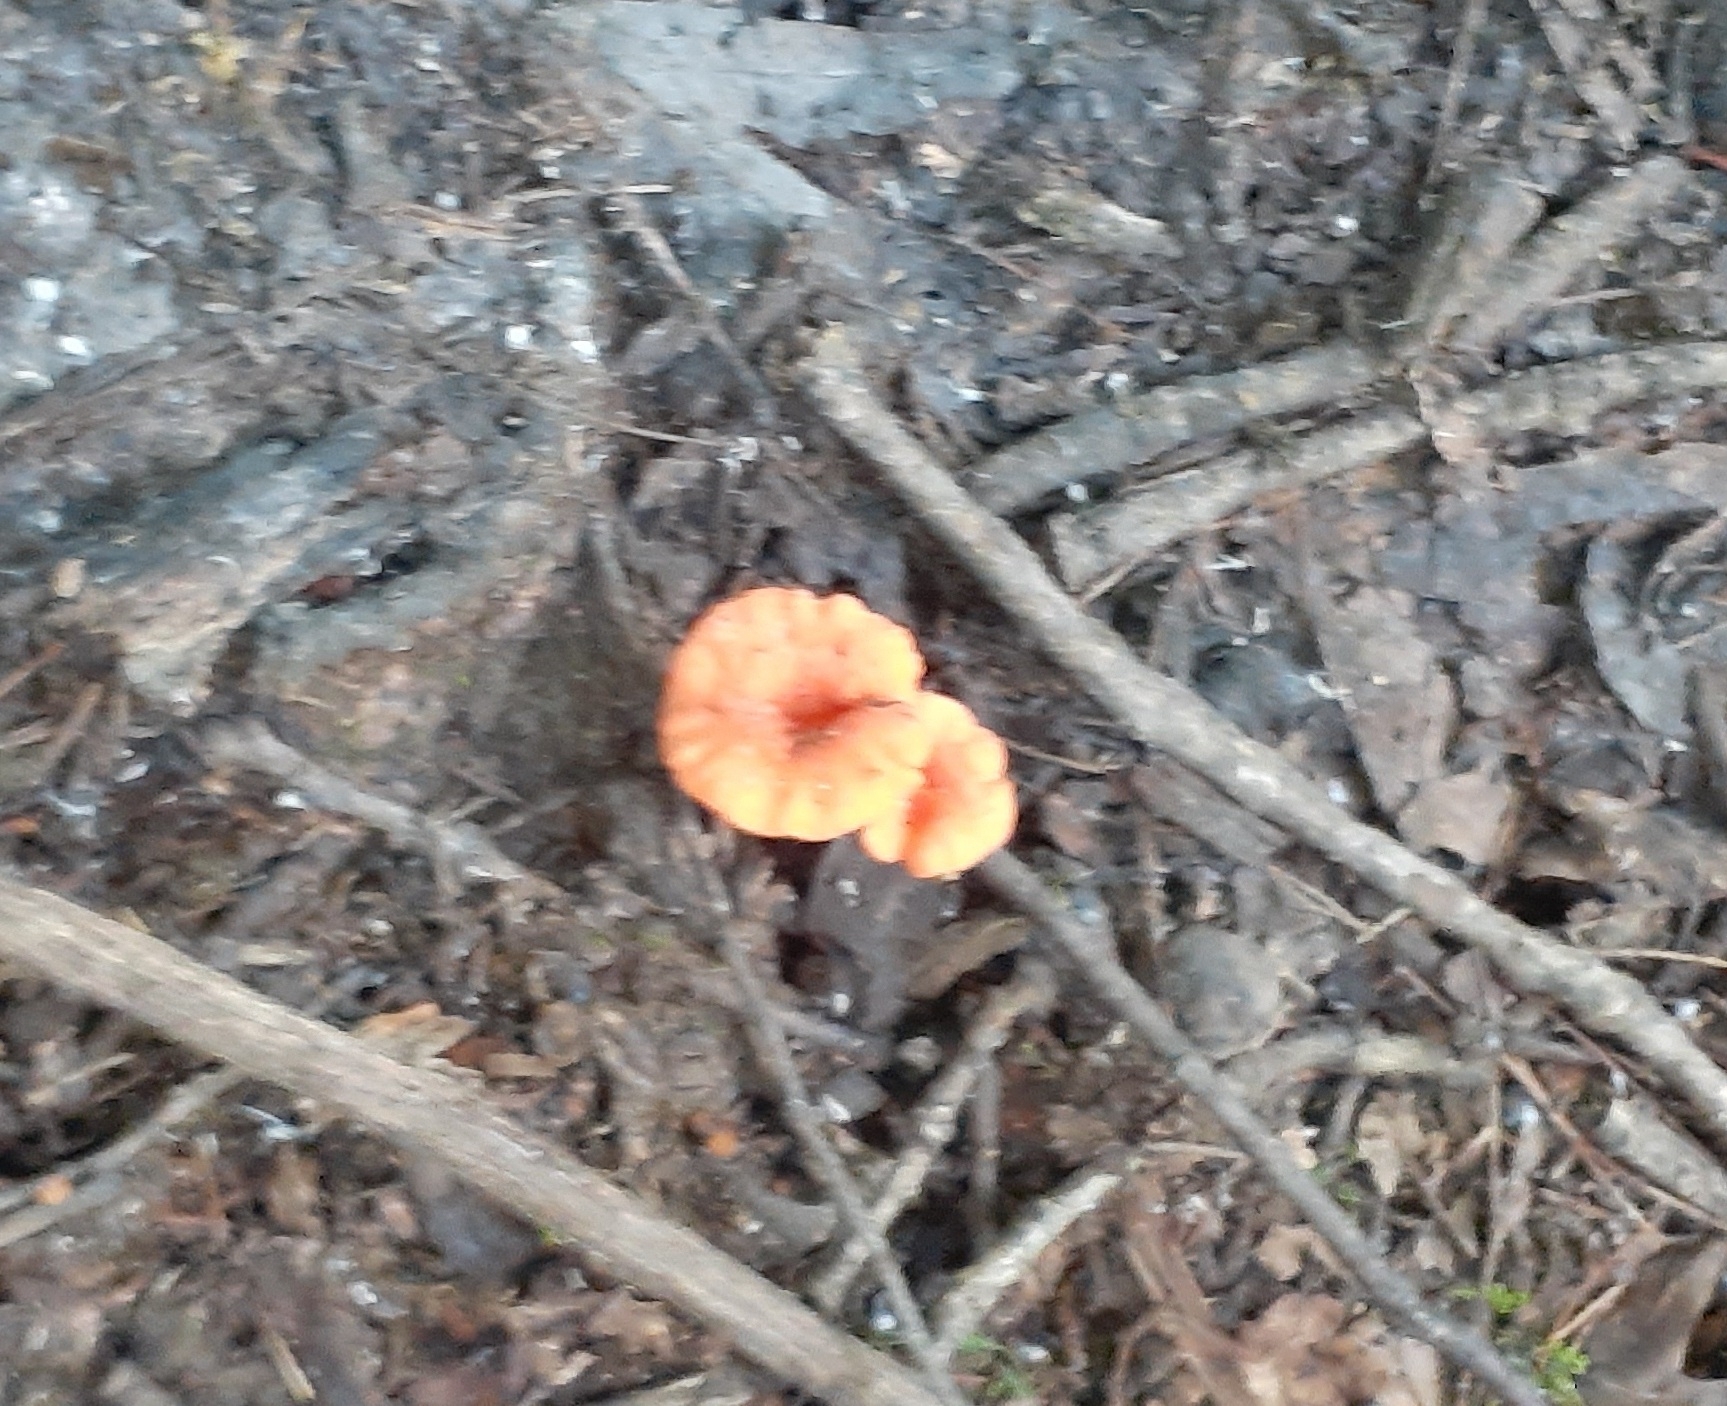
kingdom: Fungi
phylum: Basidiomycota
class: Agaricomycetes
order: Cantharellales
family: Hydnaceae
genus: Cantharellus
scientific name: Cantharellus corallinus
